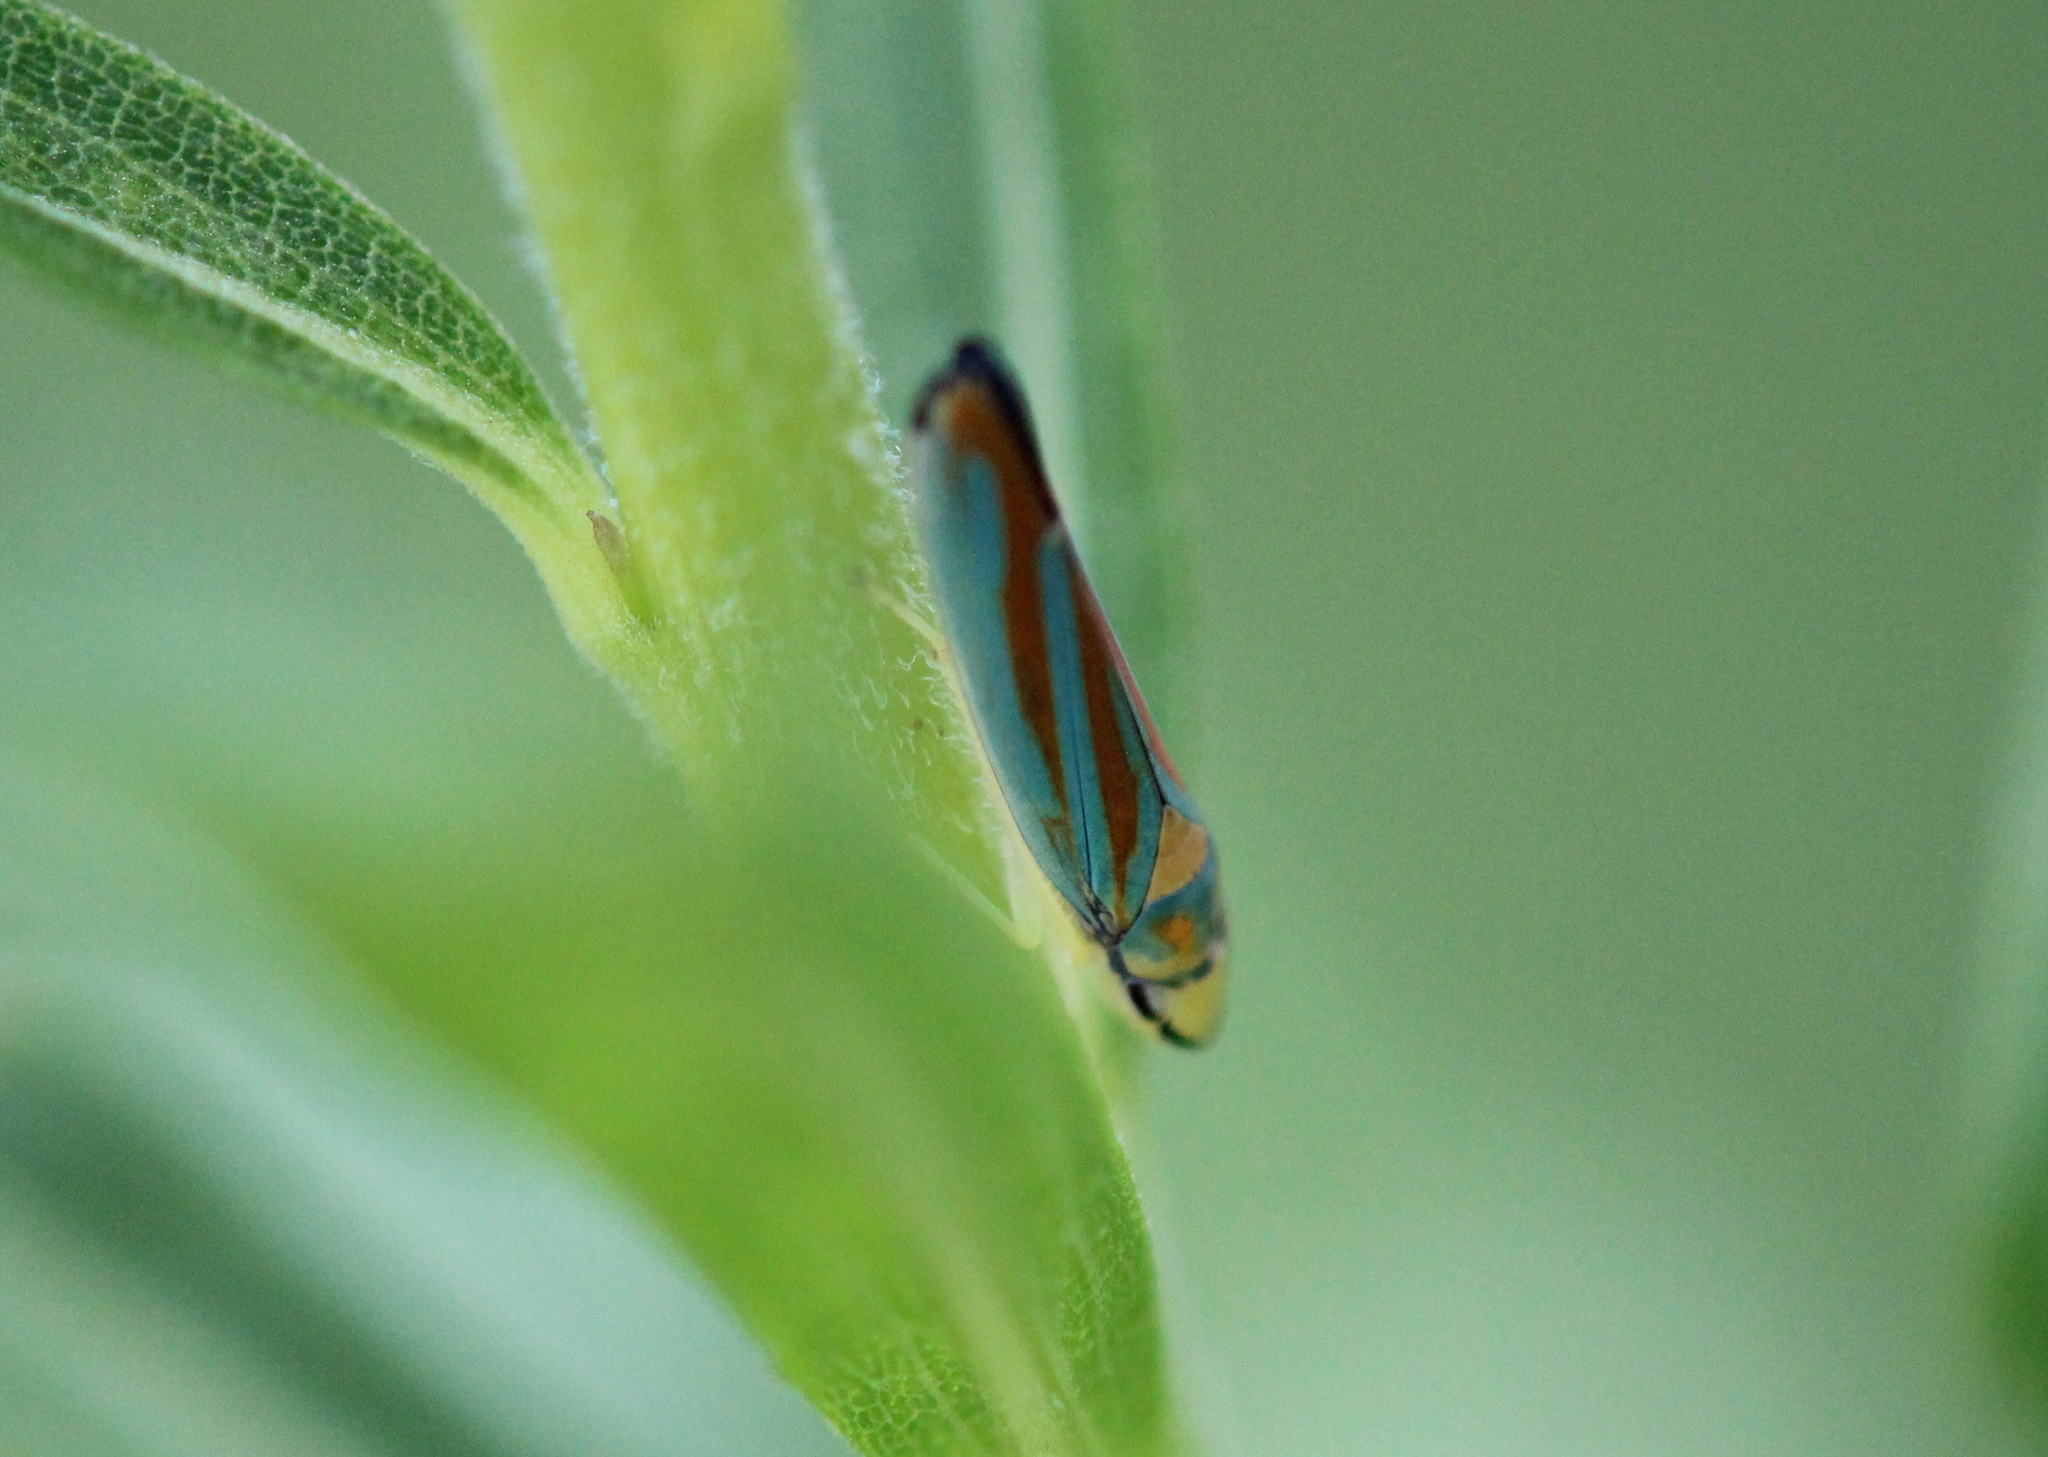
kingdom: Animalia
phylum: Arthropoda
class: Insecta
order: Hemiptera
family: Cicadellidae
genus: Graphocephala
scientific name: Graphocephala coccinea
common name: Candy-striped leafhopper
